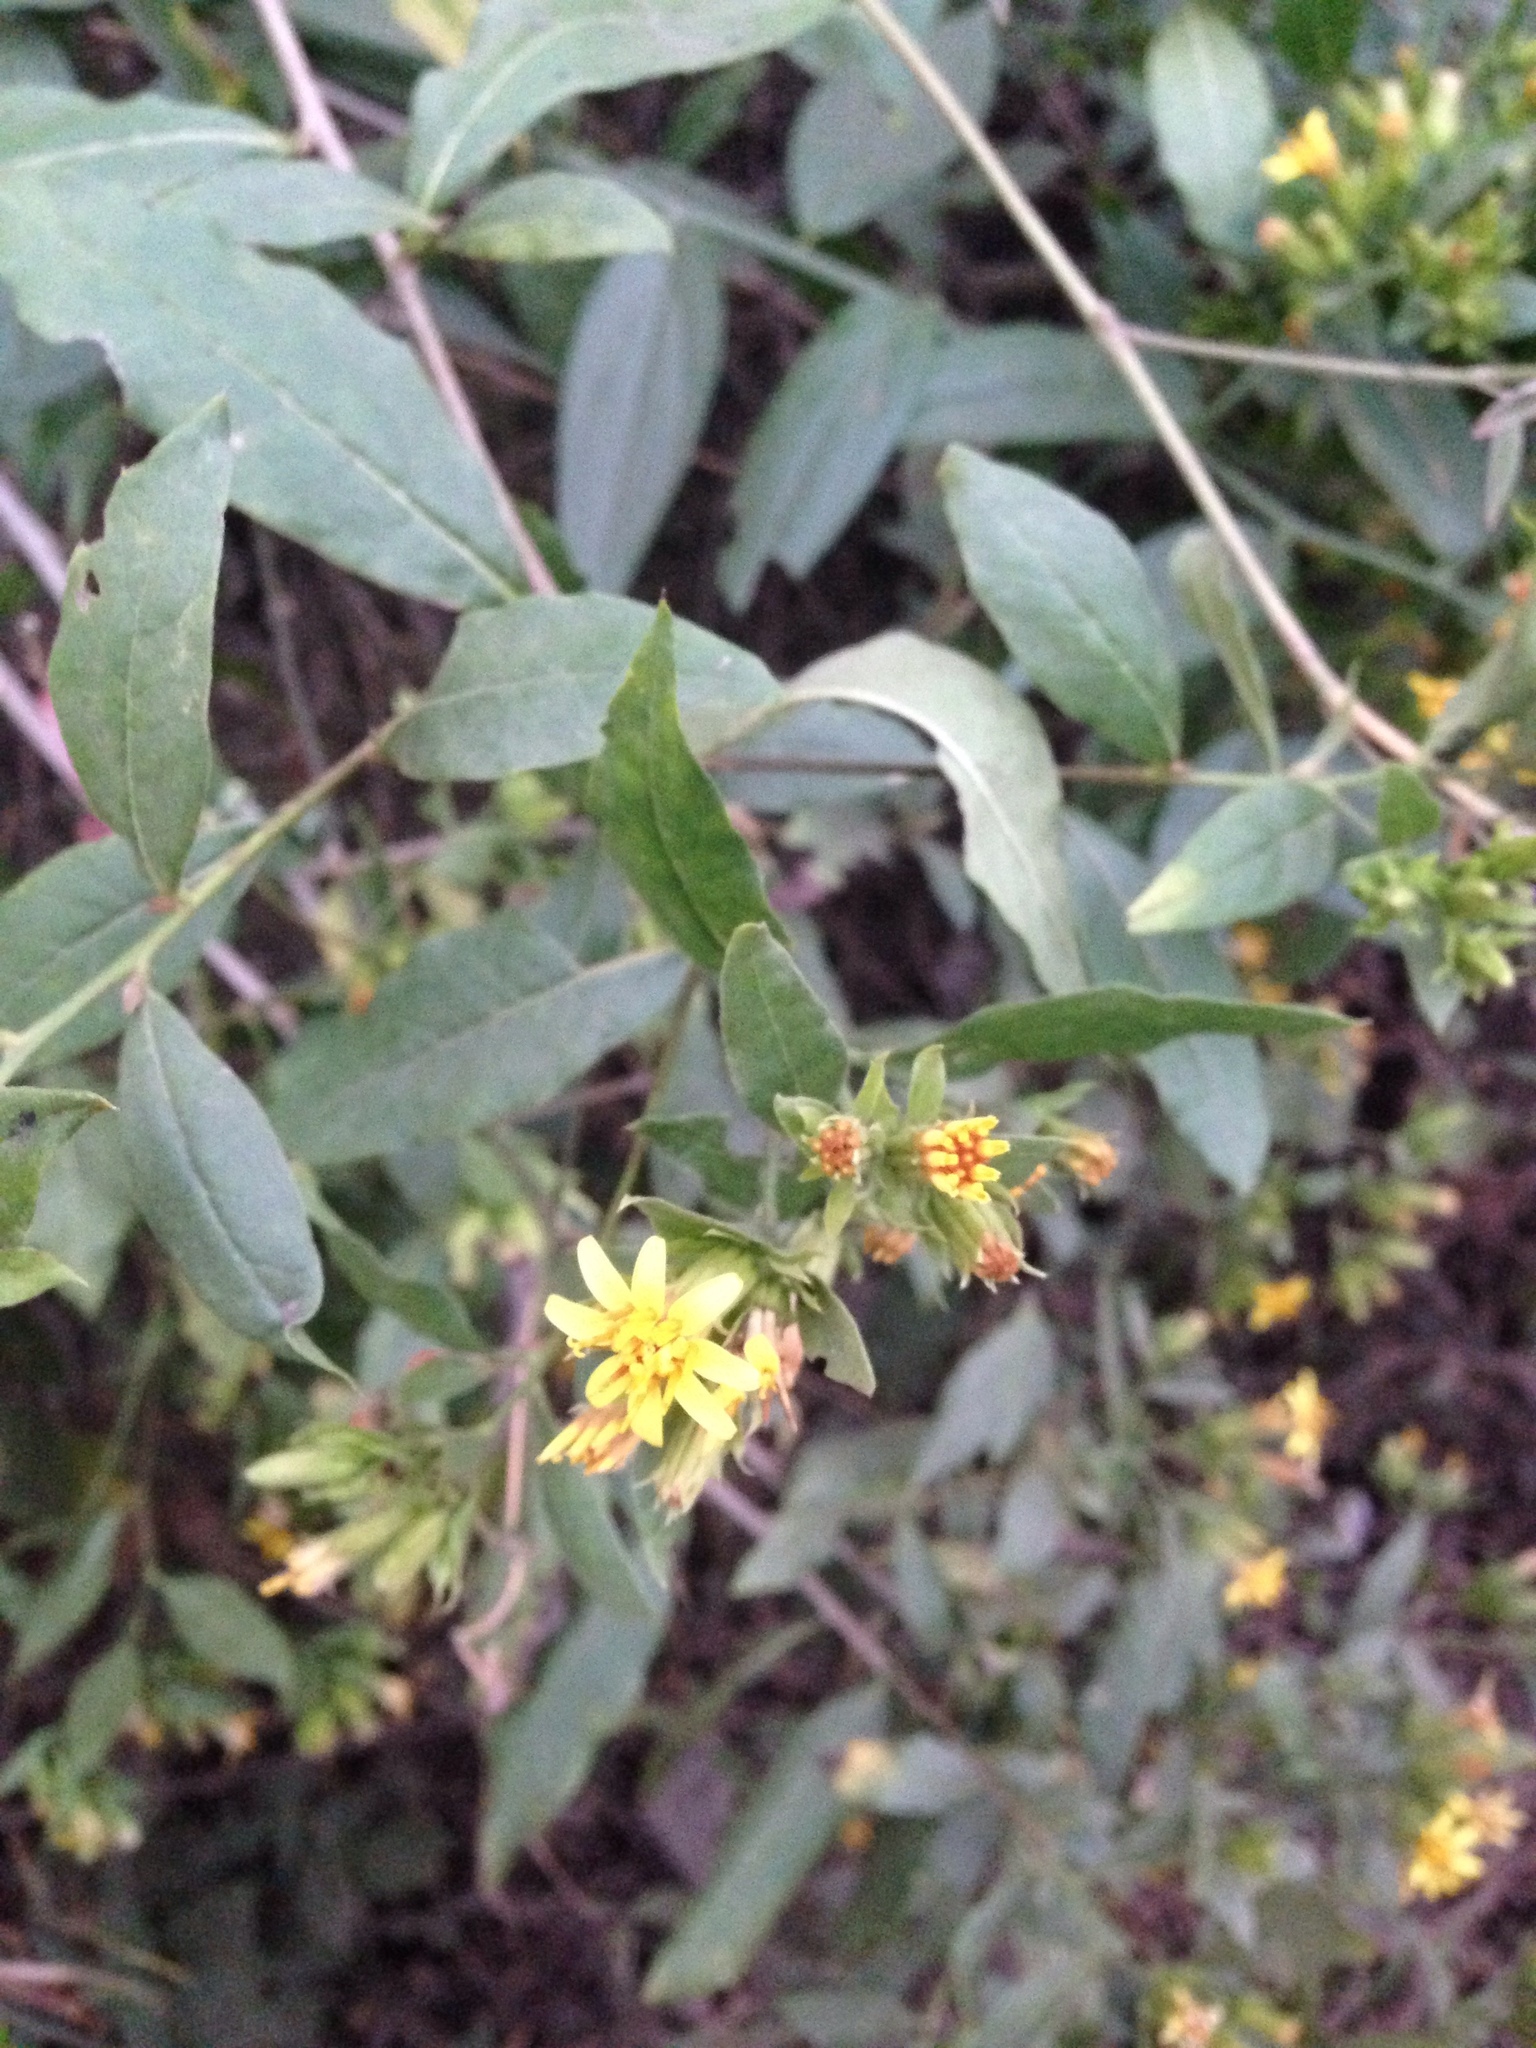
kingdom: Plantae
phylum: Tracheophyta
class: Magnoliopsida
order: Asterales
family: Asteraceae
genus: Trixis
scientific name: Trixis inula
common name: Tropical threefold
